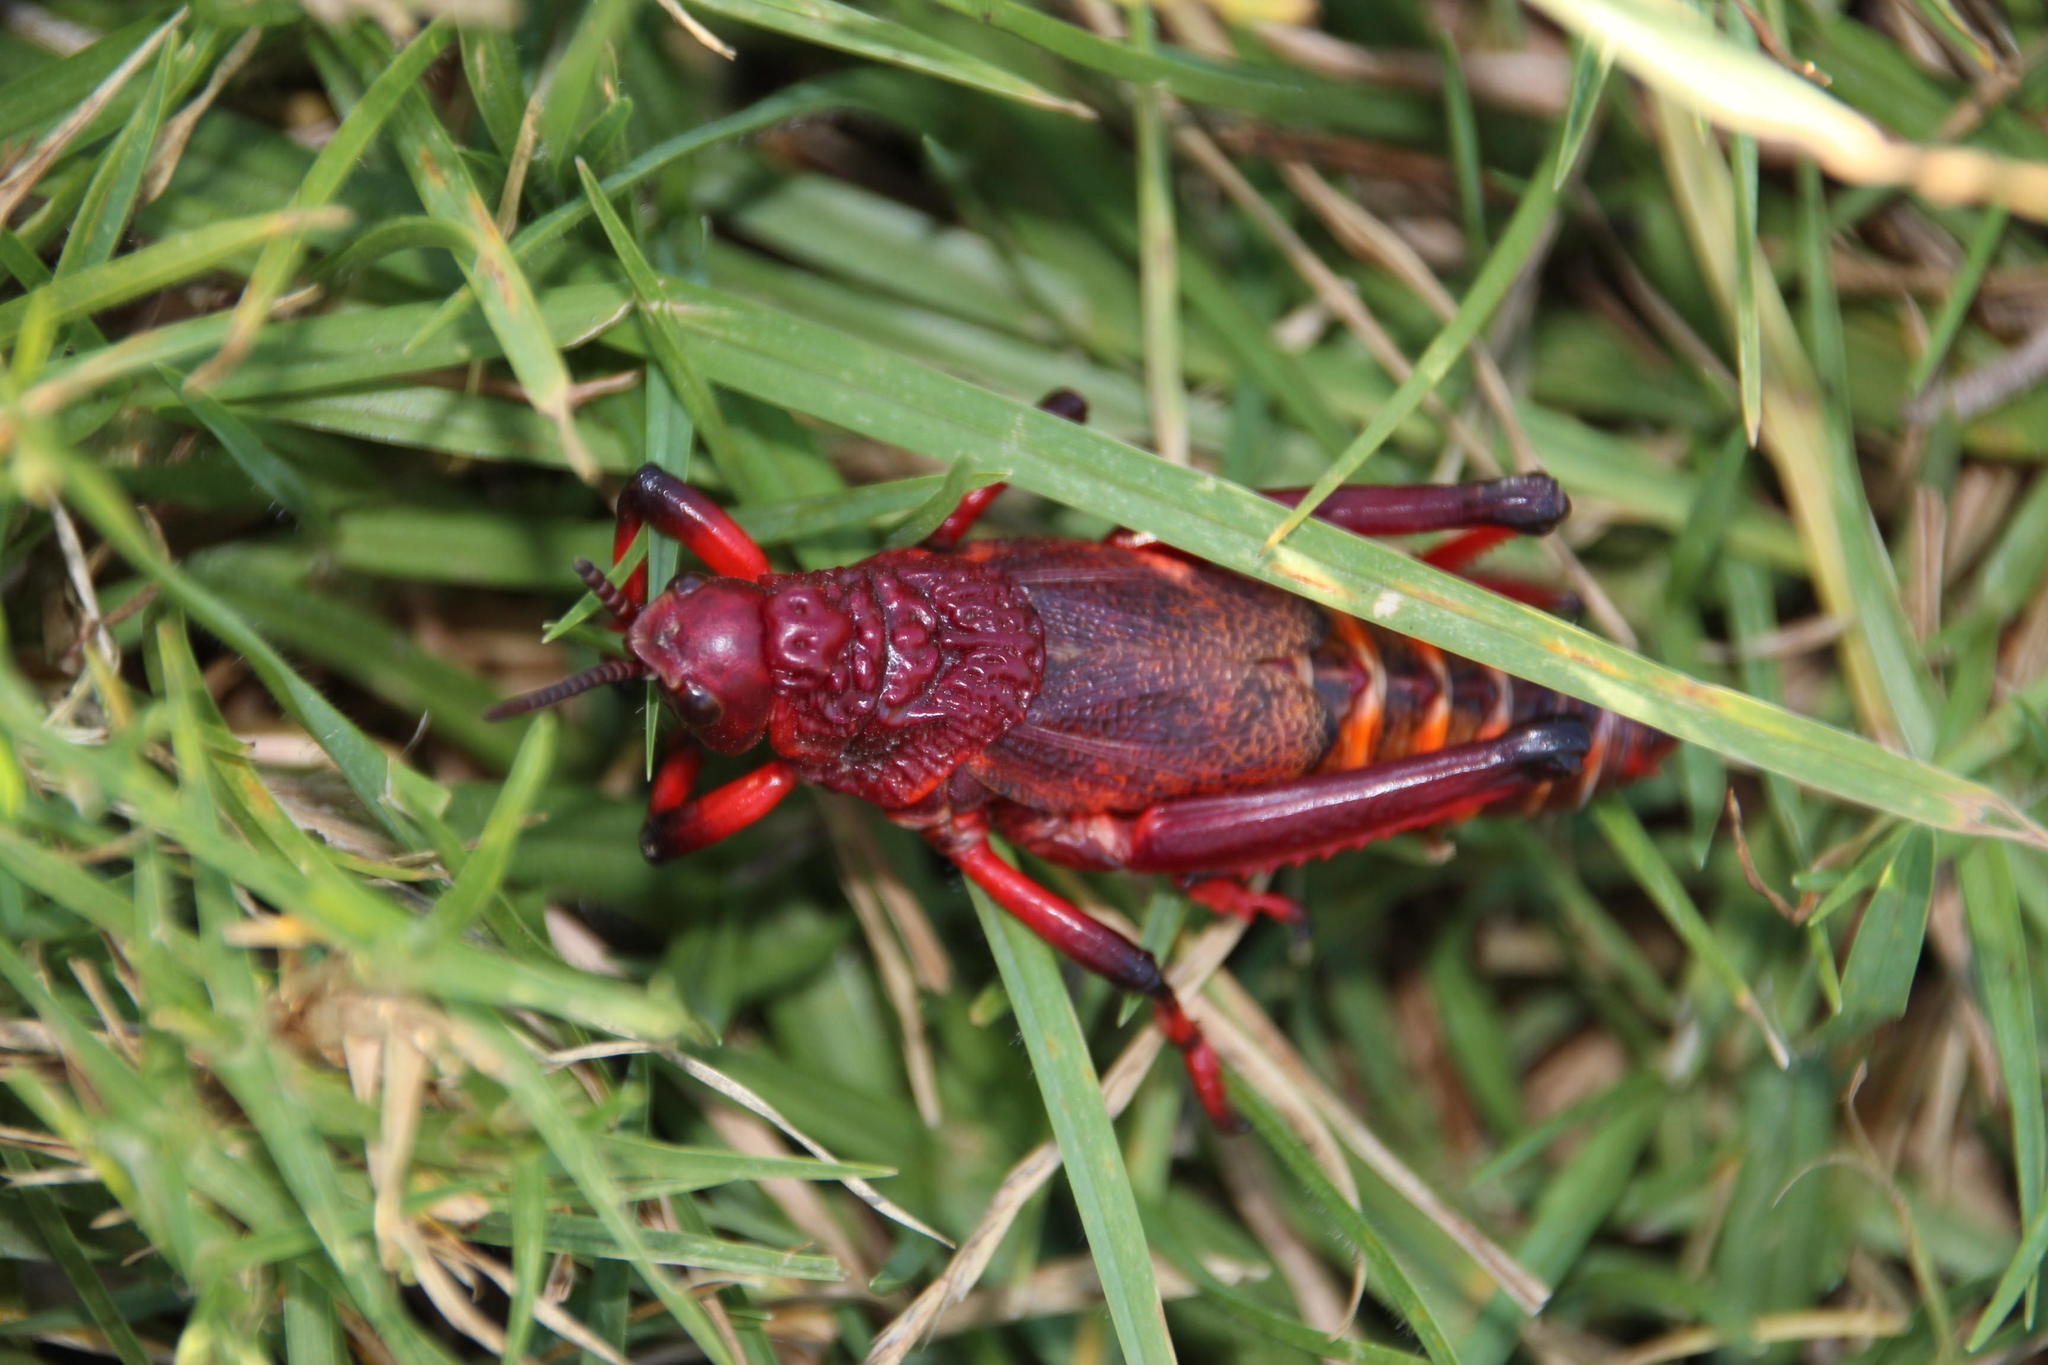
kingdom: Animalia
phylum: Arthropoda
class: Insecta
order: Orthoptera
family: Pyrgomorphidae
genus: Dictyophorus
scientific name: Dictyophorus spumans
